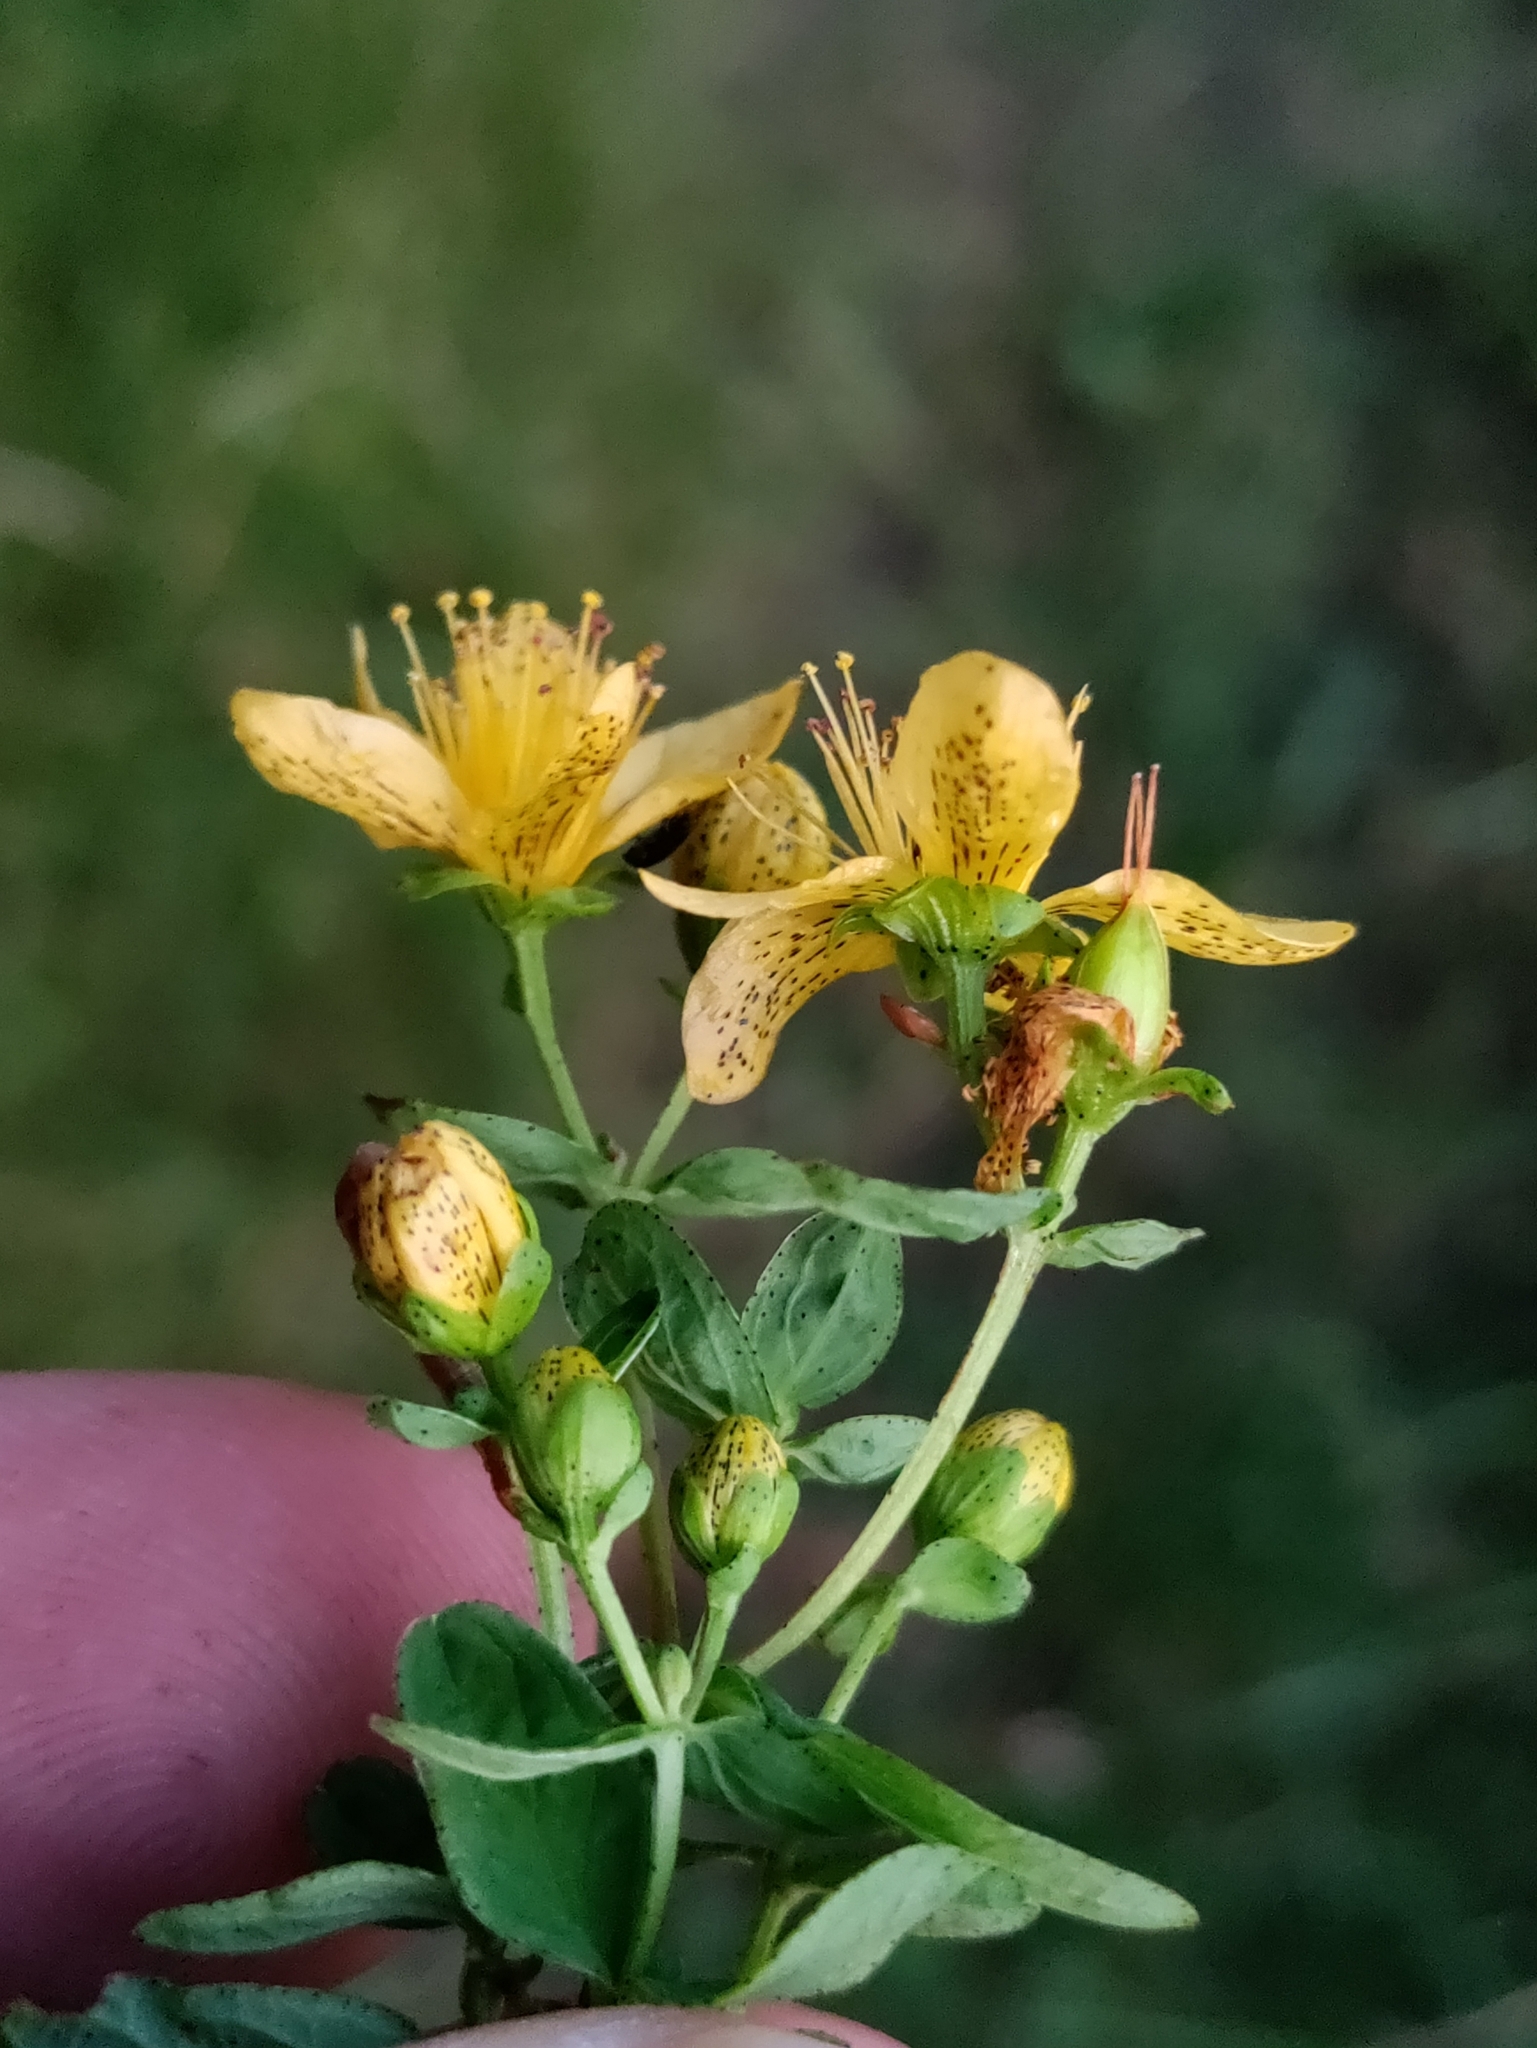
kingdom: Plantae
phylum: Tracheophyta
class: Magnoliopsida
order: Malpighiales
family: Hypericaceae
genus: Hypericum
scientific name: Hypericum maculatum
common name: Imperforate st. john's-wort
